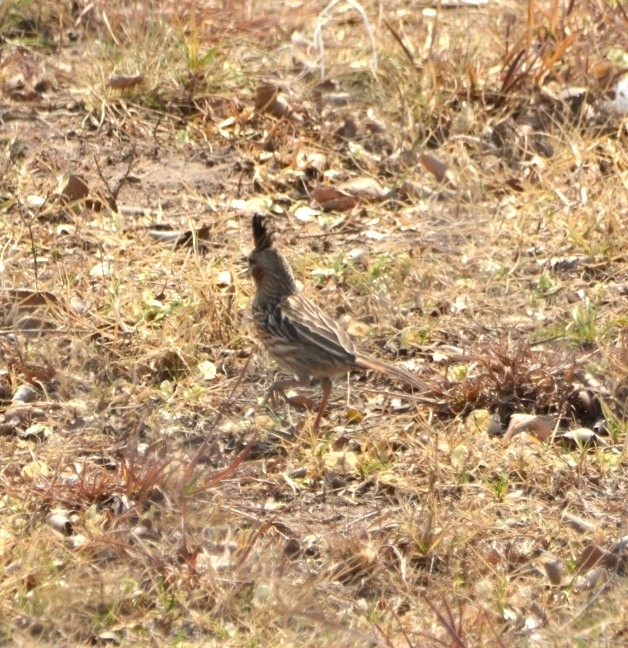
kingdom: Animalia
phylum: Chordata
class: Aves
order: Passeriformes
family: Furnariidae
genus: Coryphistera
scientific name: Coryphistera alaudina
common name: Lark-like brushrunner
